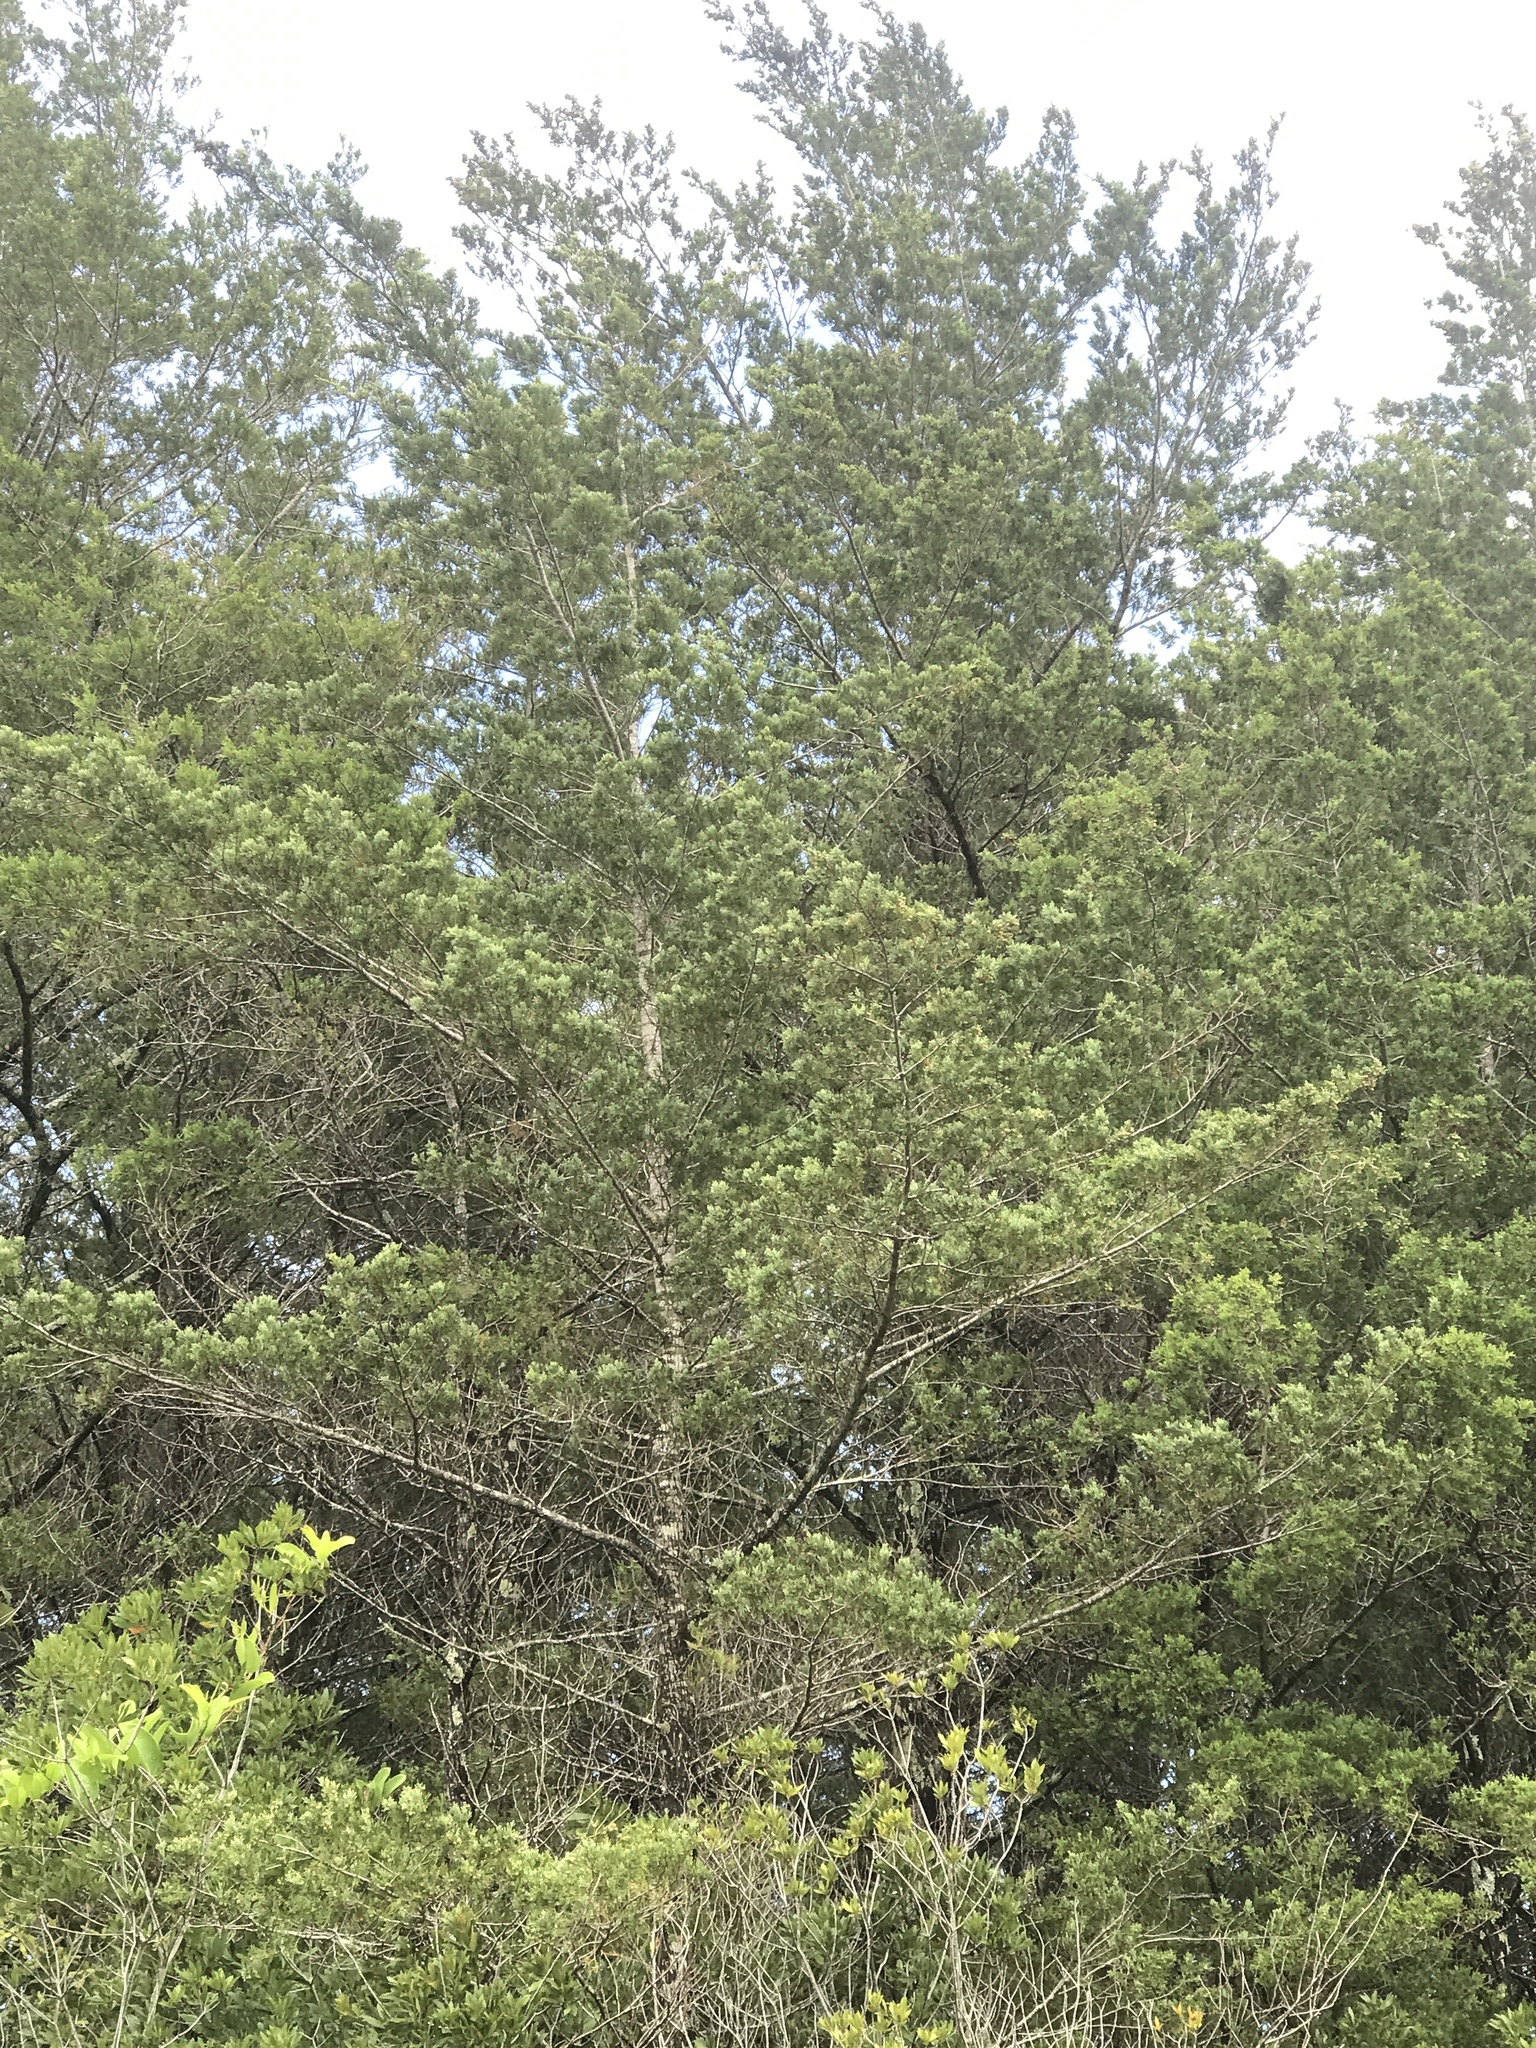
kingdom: Plantae
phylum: Tracheophyta
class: Pinopsida
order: Pinales
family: Cupressaceae
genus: Chamaecyparis
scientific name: Chamaecyparis thyoides
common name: Atlantic white cedar
